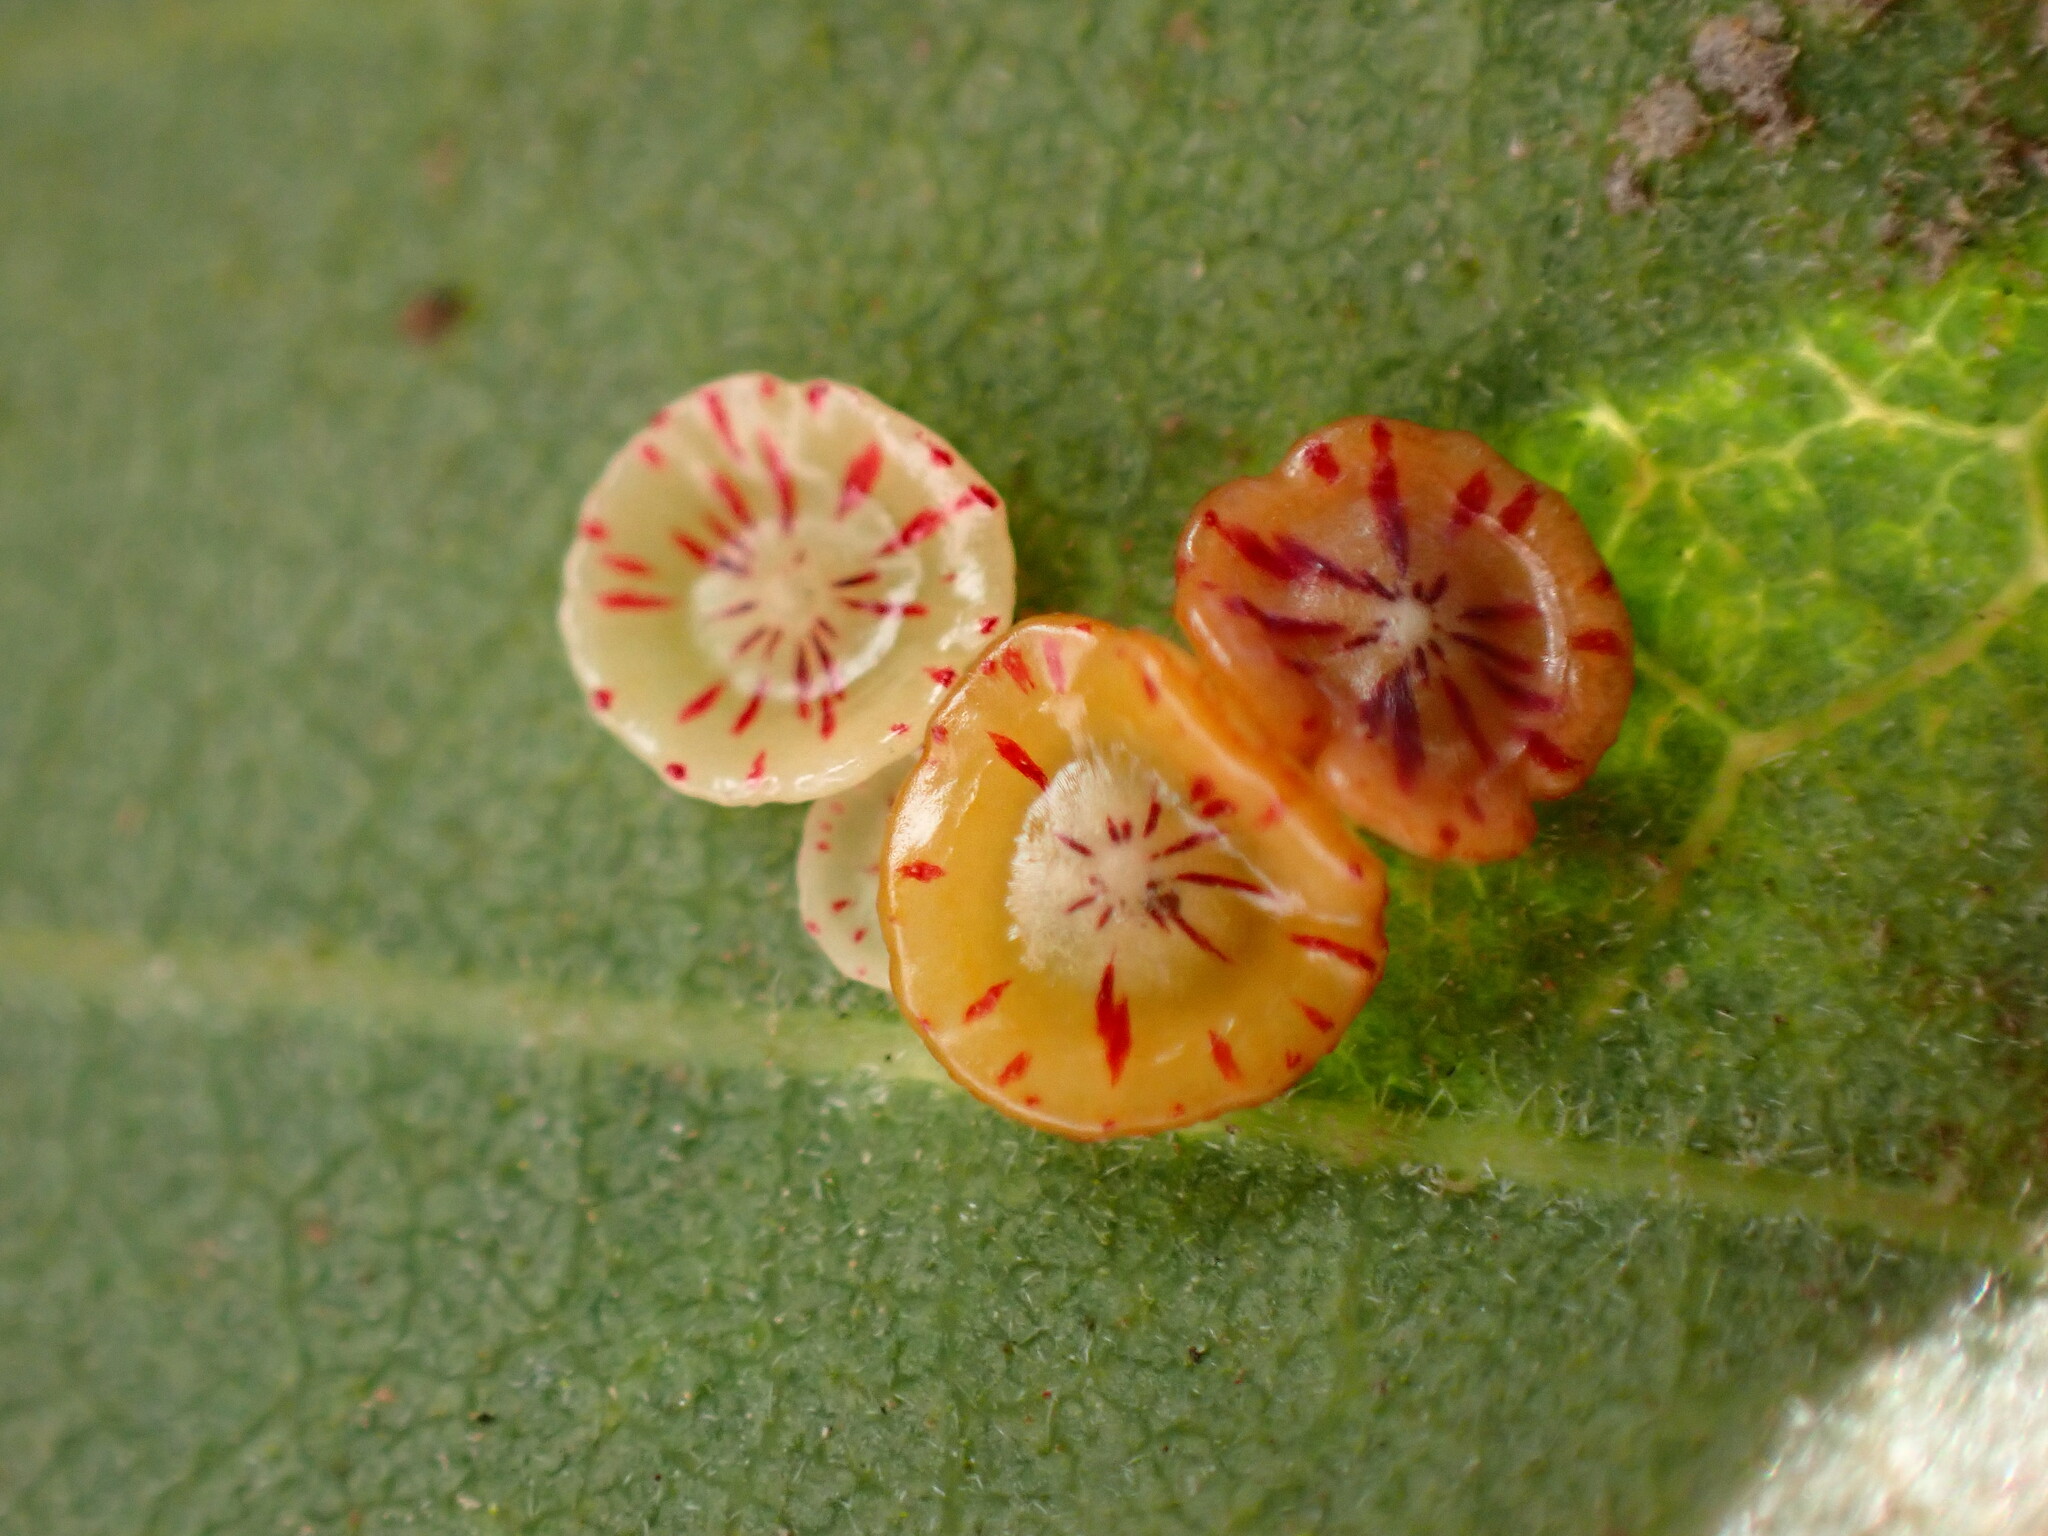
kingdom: Animalia
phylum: Arthropoda
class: Insecta
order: Hymenoptera
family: Cynipidae
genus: Andricus
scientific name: Andricus
